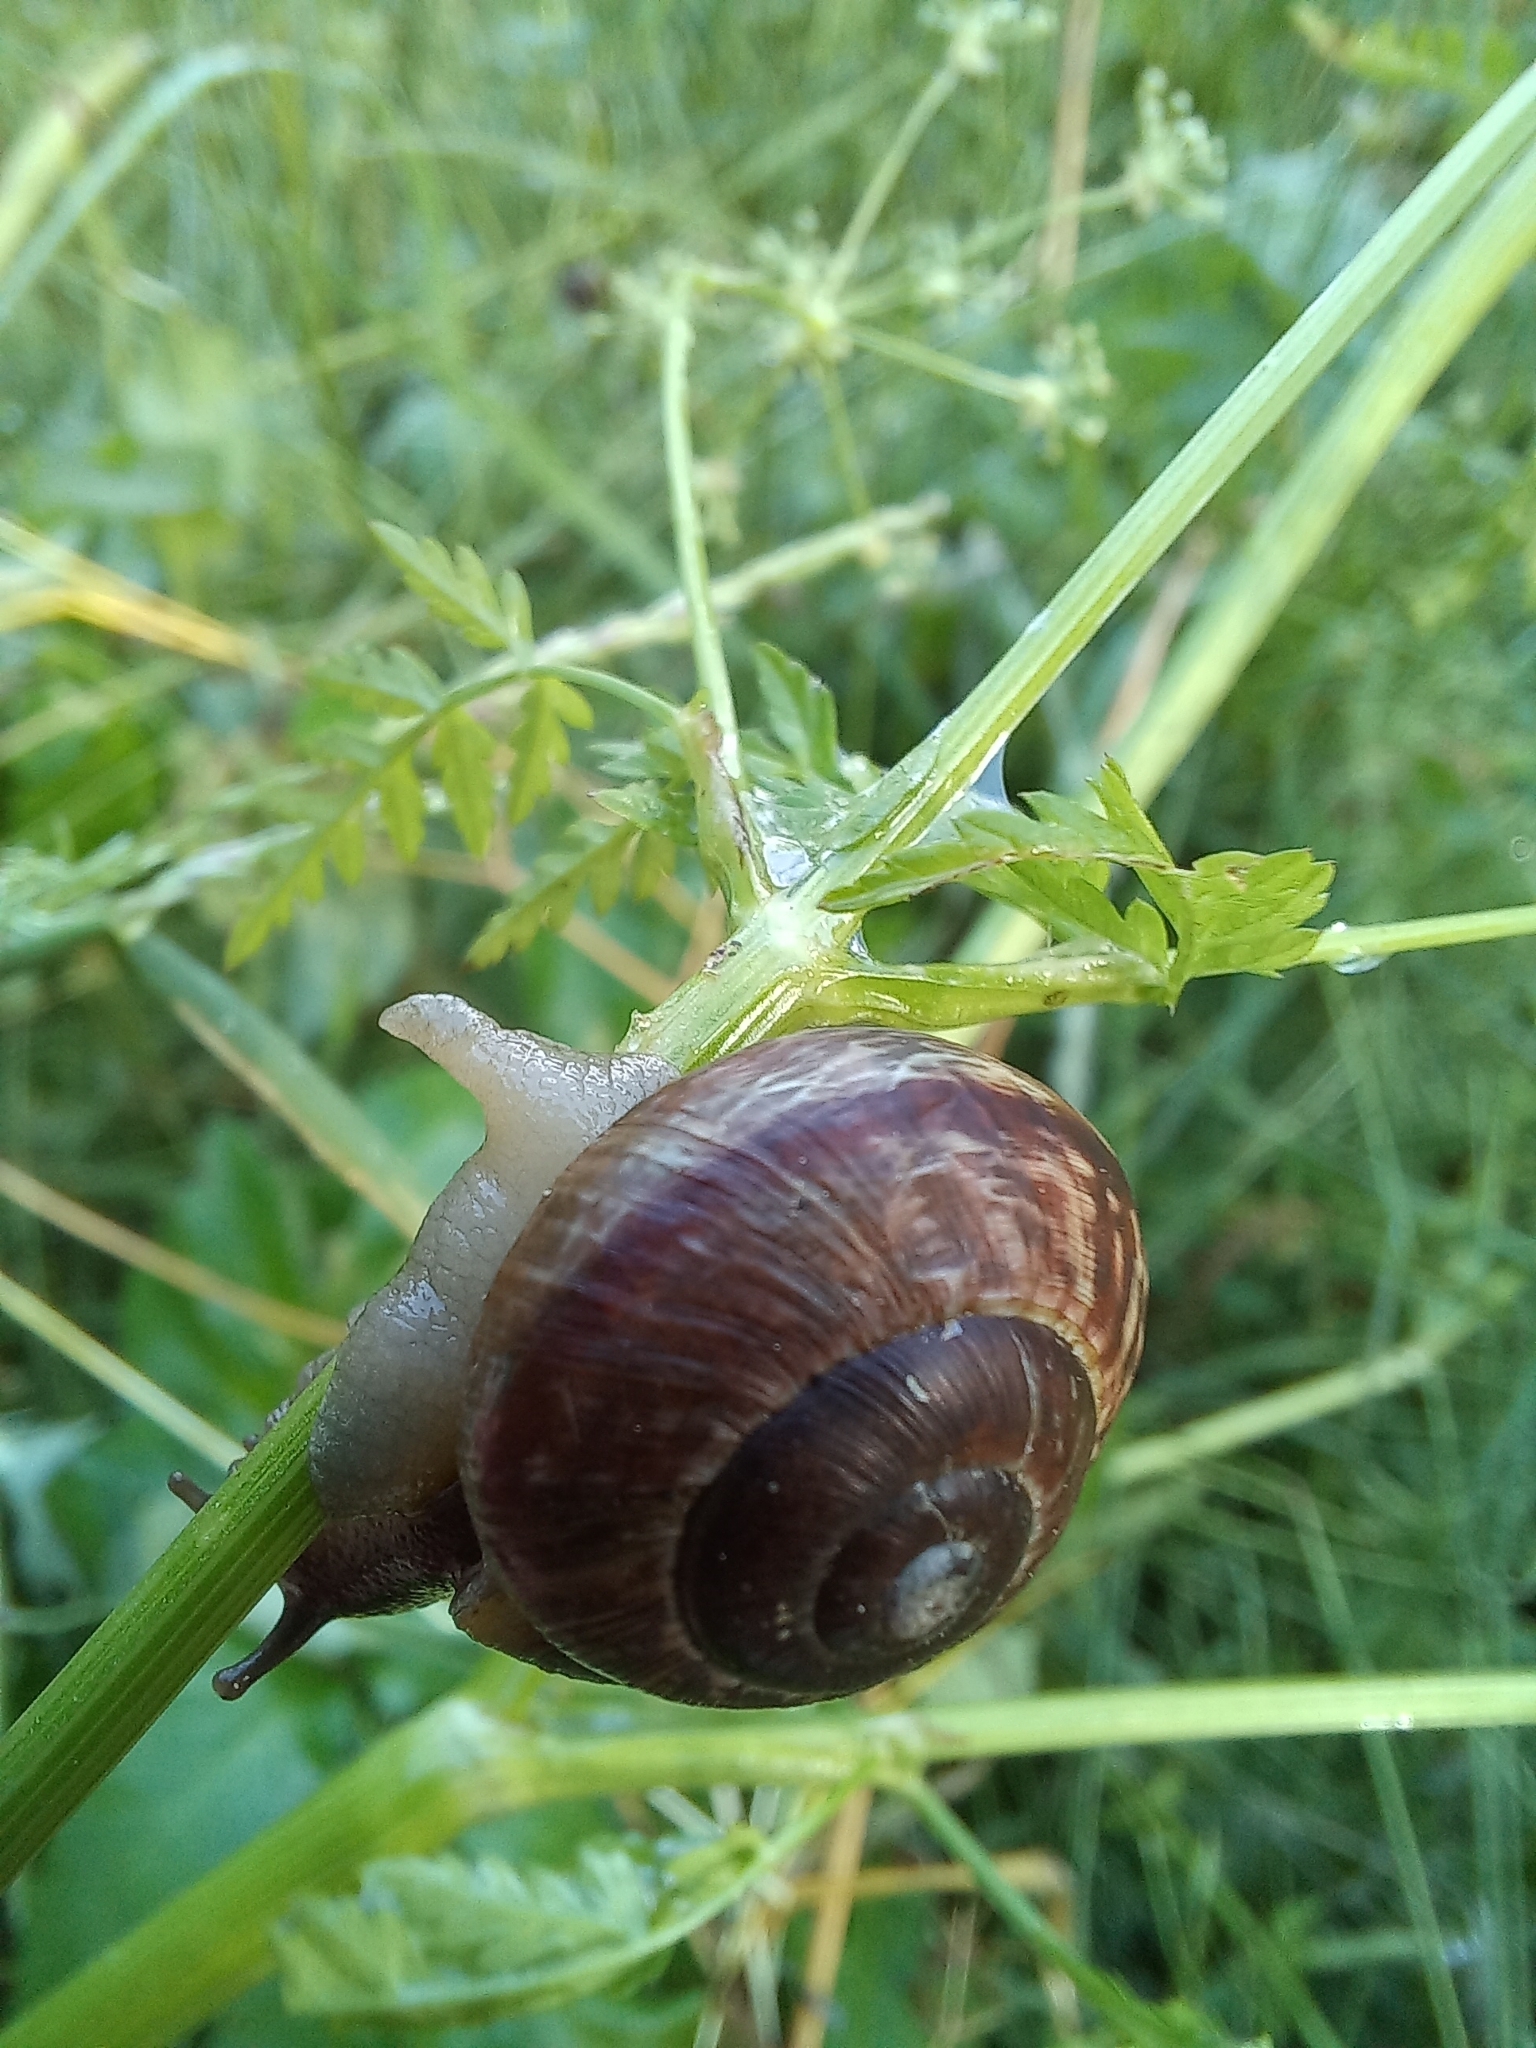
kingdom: Animalia
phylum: Mollusca
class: Gastropoda
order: Stylommatophora
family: Helicidae
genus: Arianta
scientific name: Arianta arbustorum
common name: Copse snail
